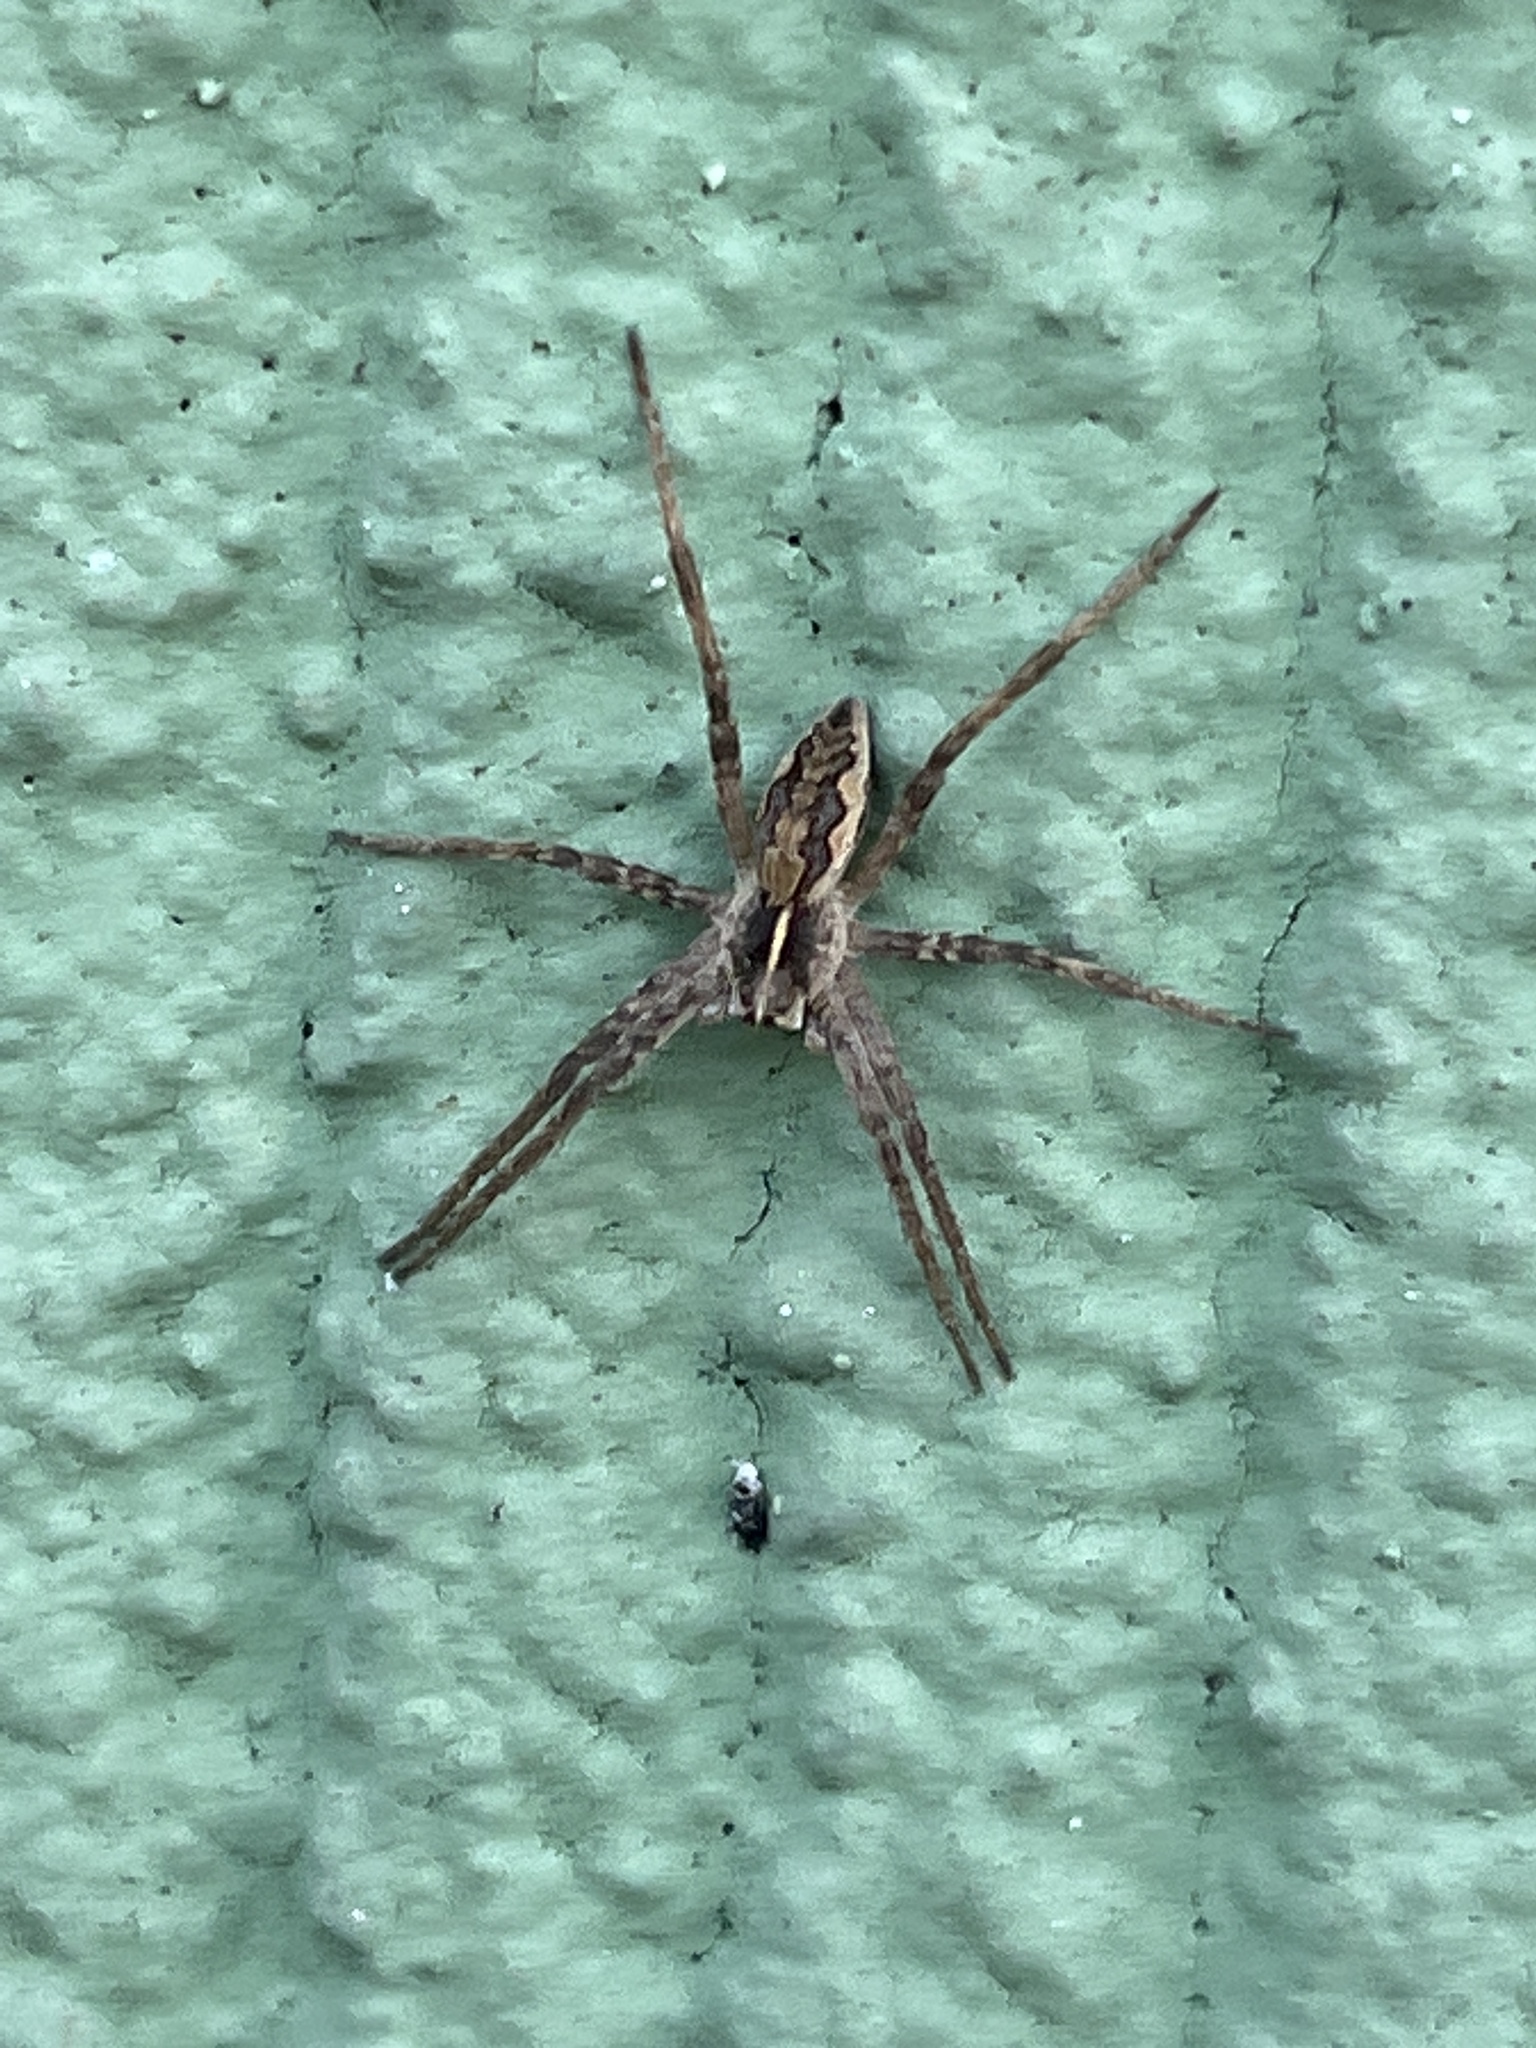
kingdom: Animalia
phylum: Arthropoda
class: Arachnida
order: Araneae
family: Pisauridae
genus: Pisaura
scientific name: Pisaura mirabilis
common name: Tent spider
